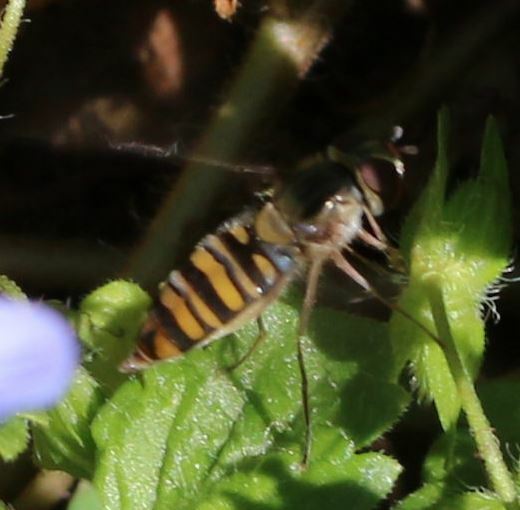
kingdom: Animalia
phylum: Arthropoda
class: Insecta
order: Diptera
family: Syrphidae
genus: Episyrphus
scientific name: Episyrphus balteatus
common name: Marmalade hoverfly
